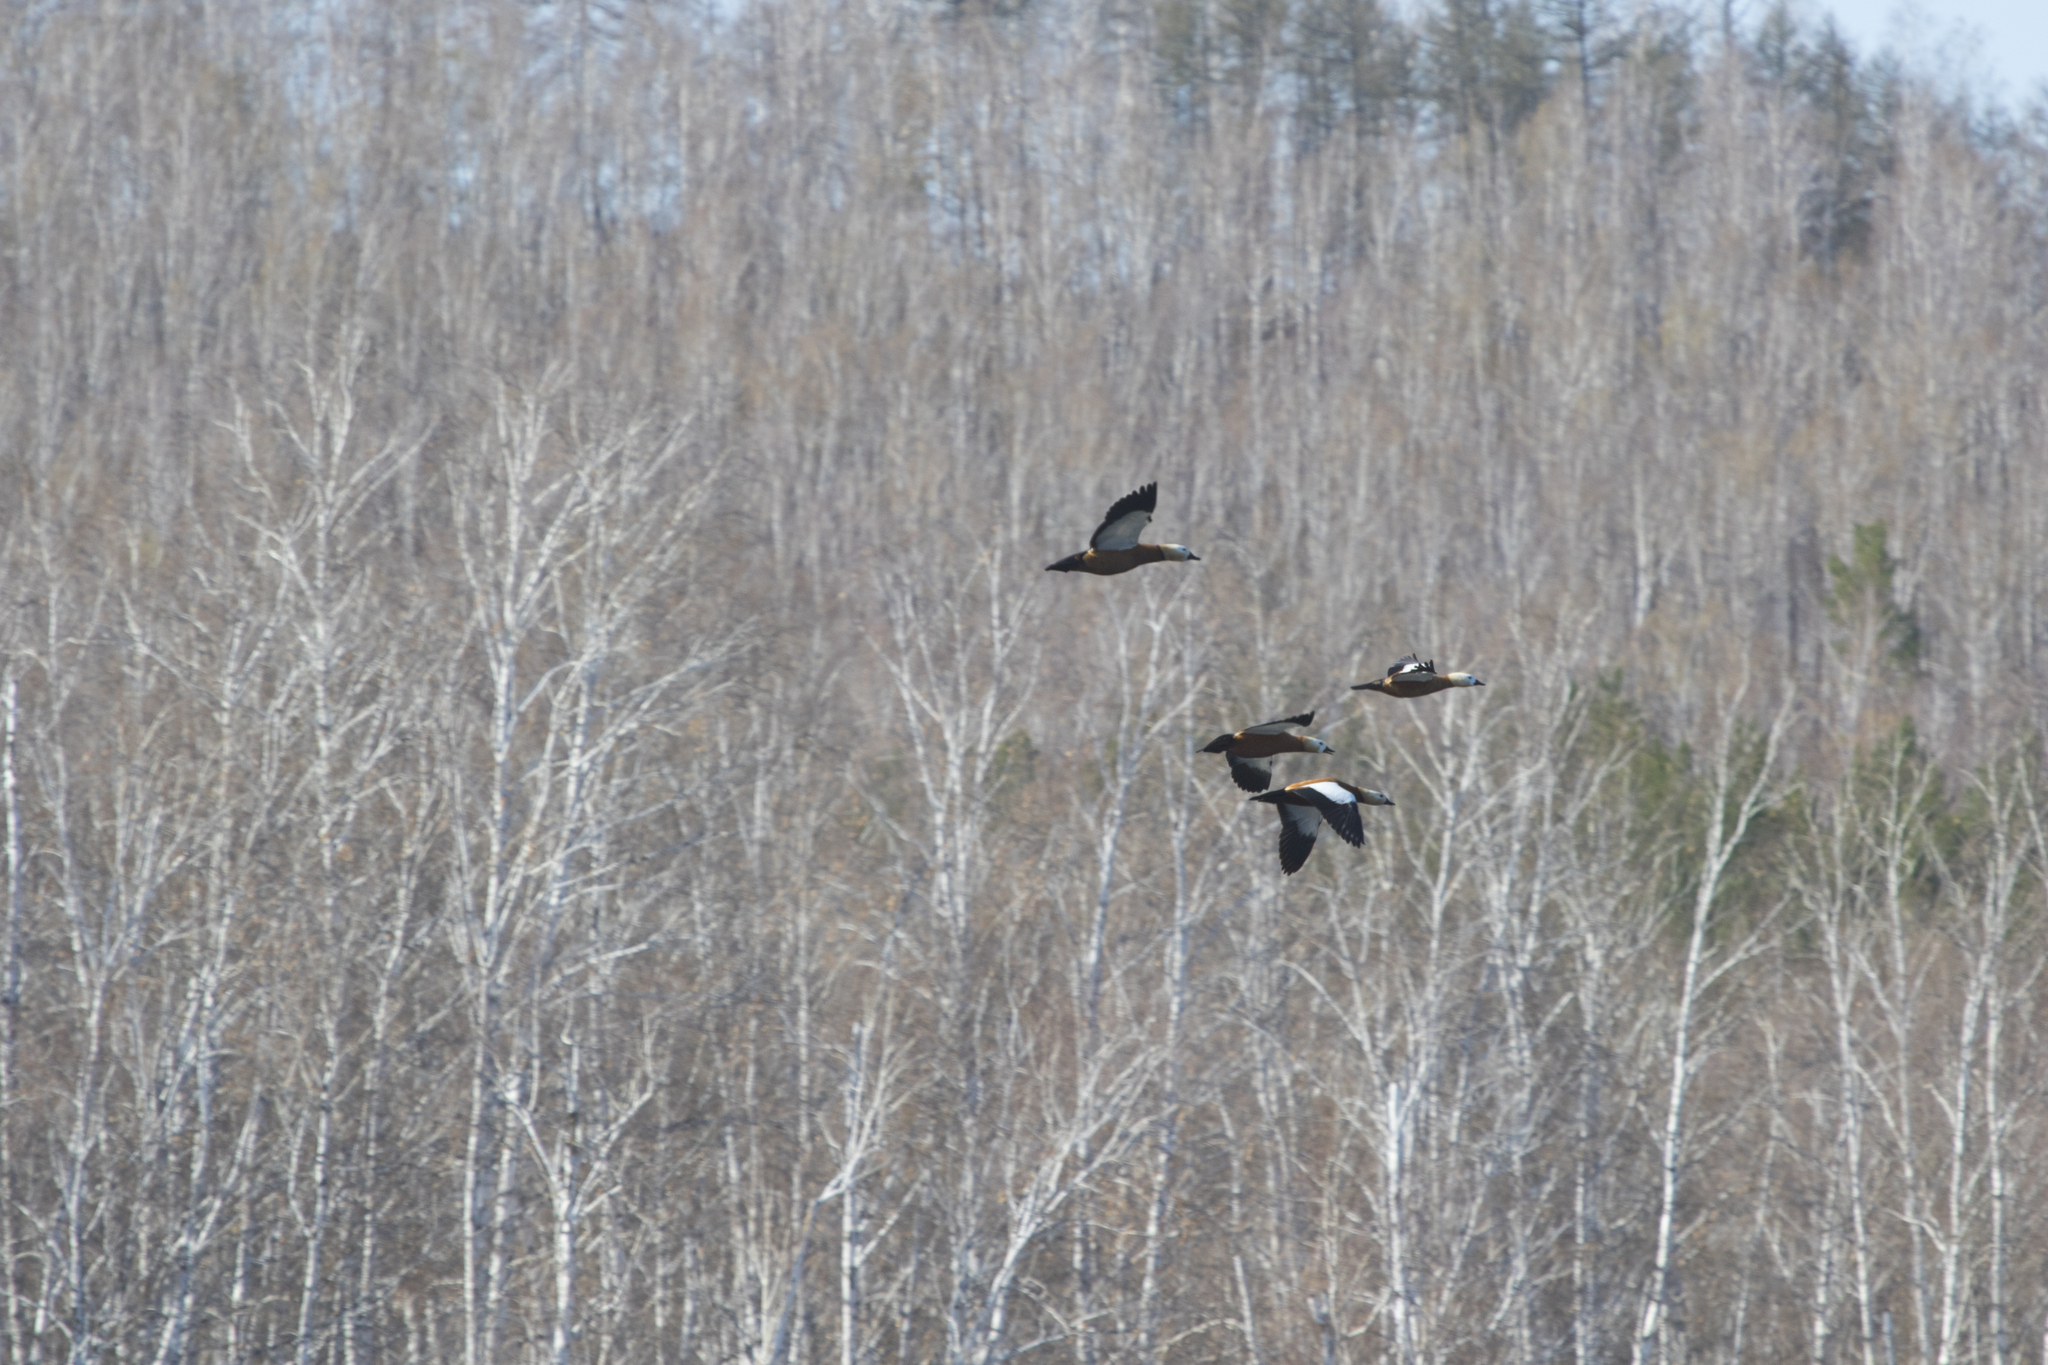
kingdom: Animalia
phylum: Chordata
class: Aves
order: Anseriformes
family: Anatidae
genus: Tadorna
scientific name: Tadorna ferruginea
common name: Ruddy shelduck
